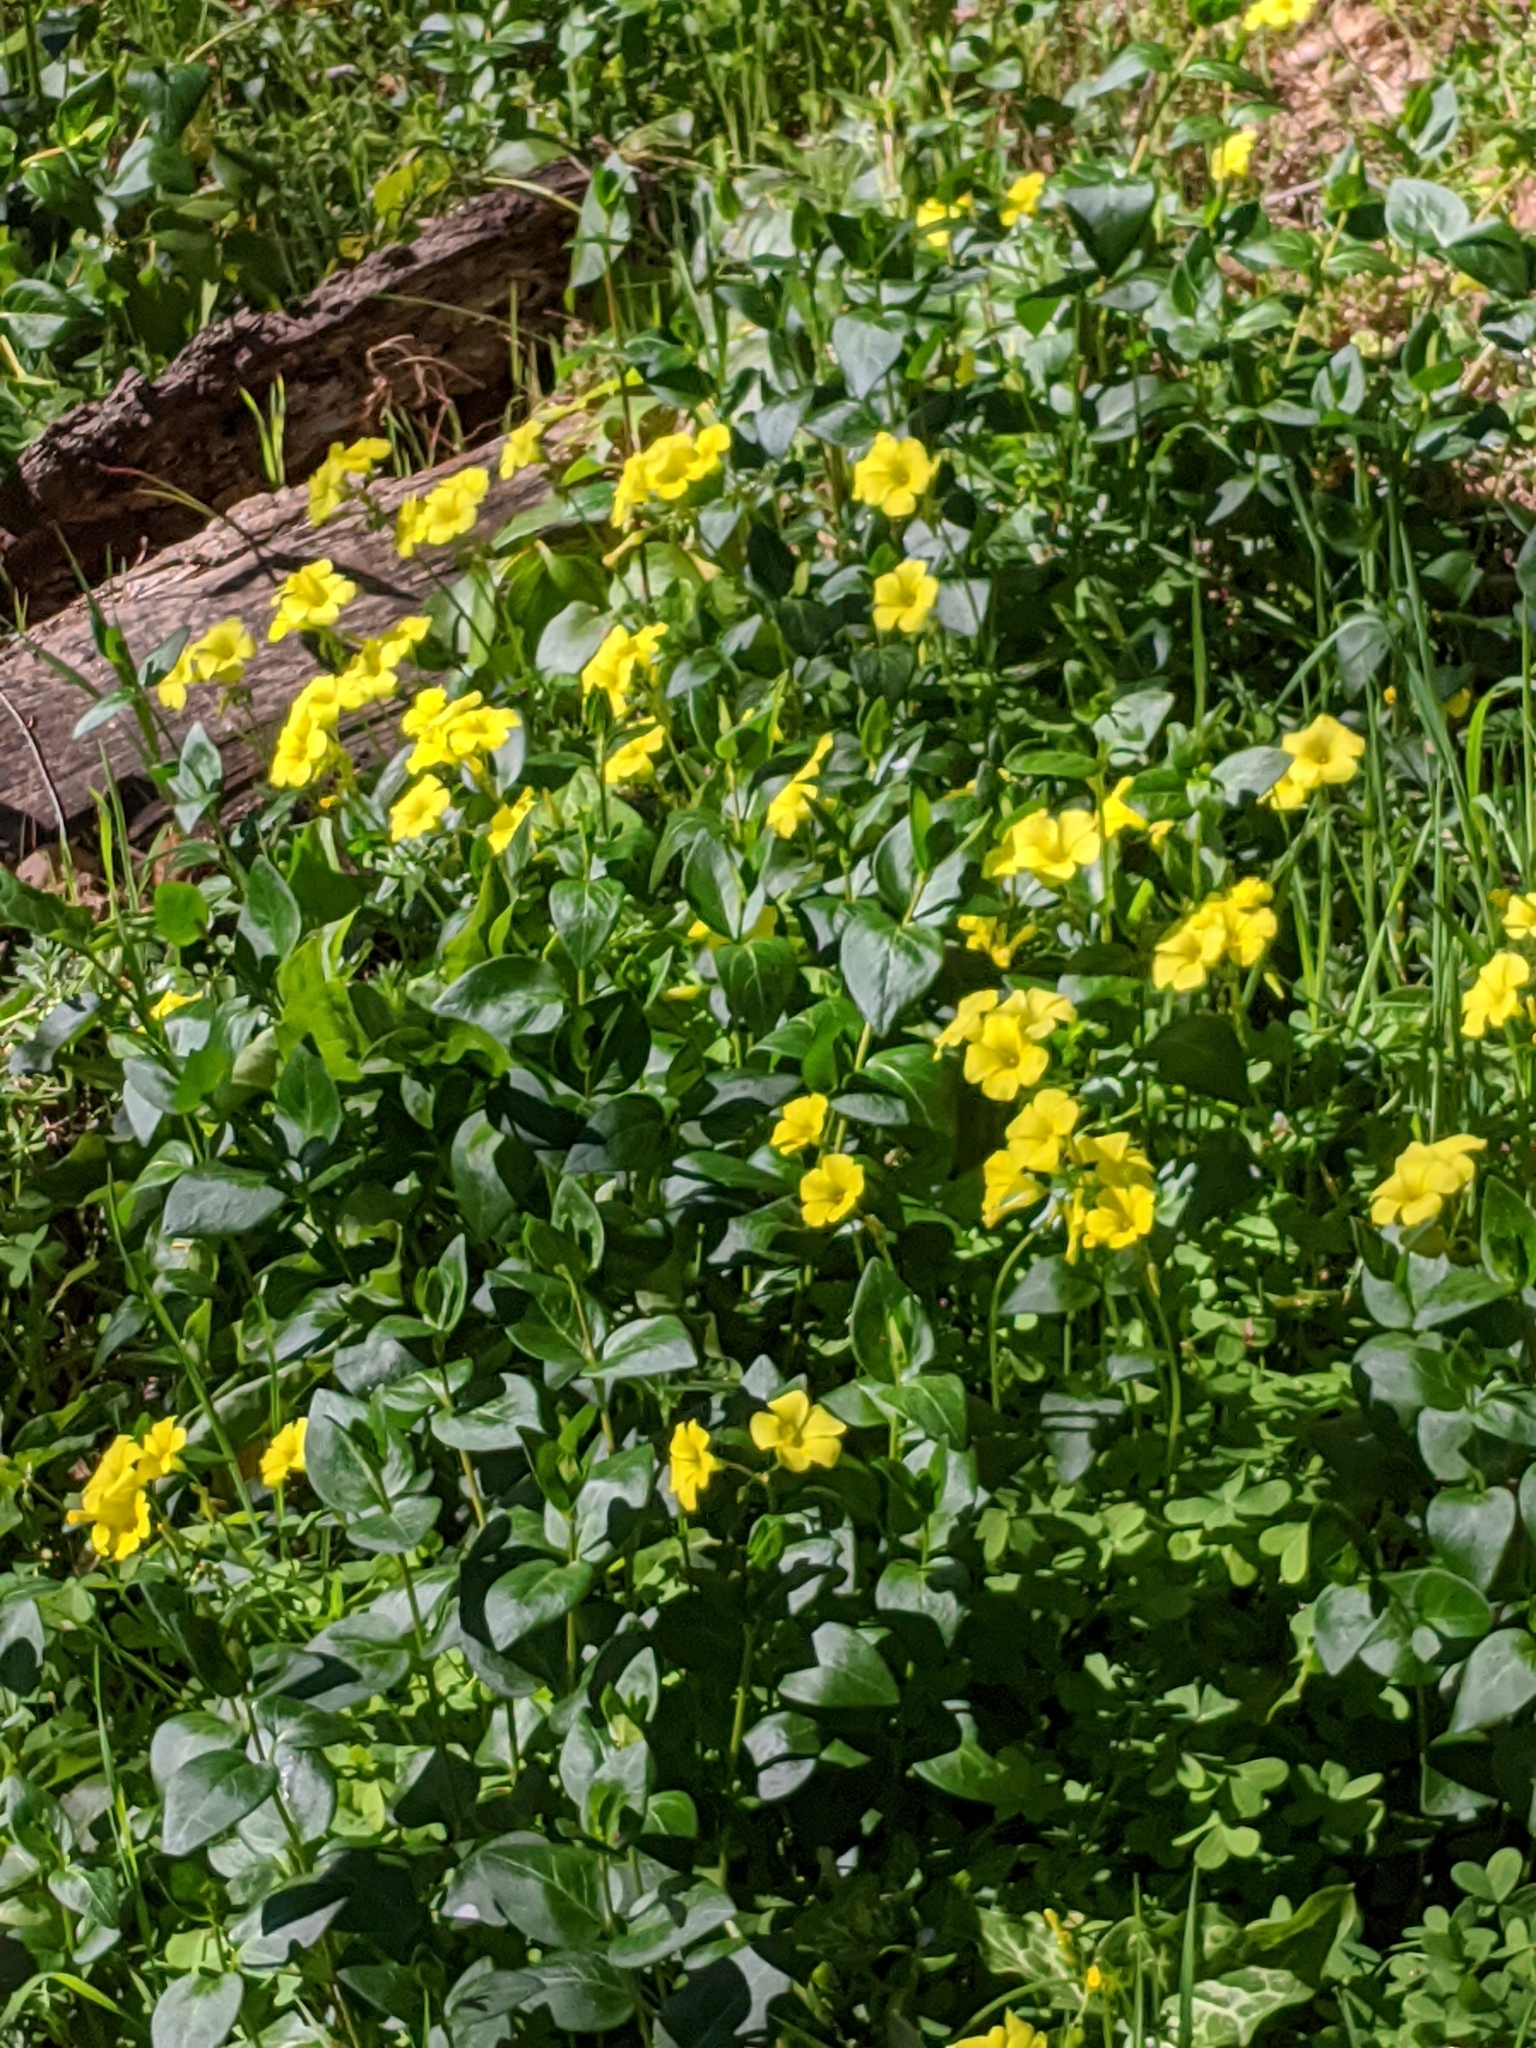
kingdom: Plantae
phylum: Tracheophyta
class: Magnoliopsida
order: Oxalidales
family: Oxalidaceae
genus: Oxalis
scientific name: Oxalis pes-caprae
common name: Bermuda-buttercup
